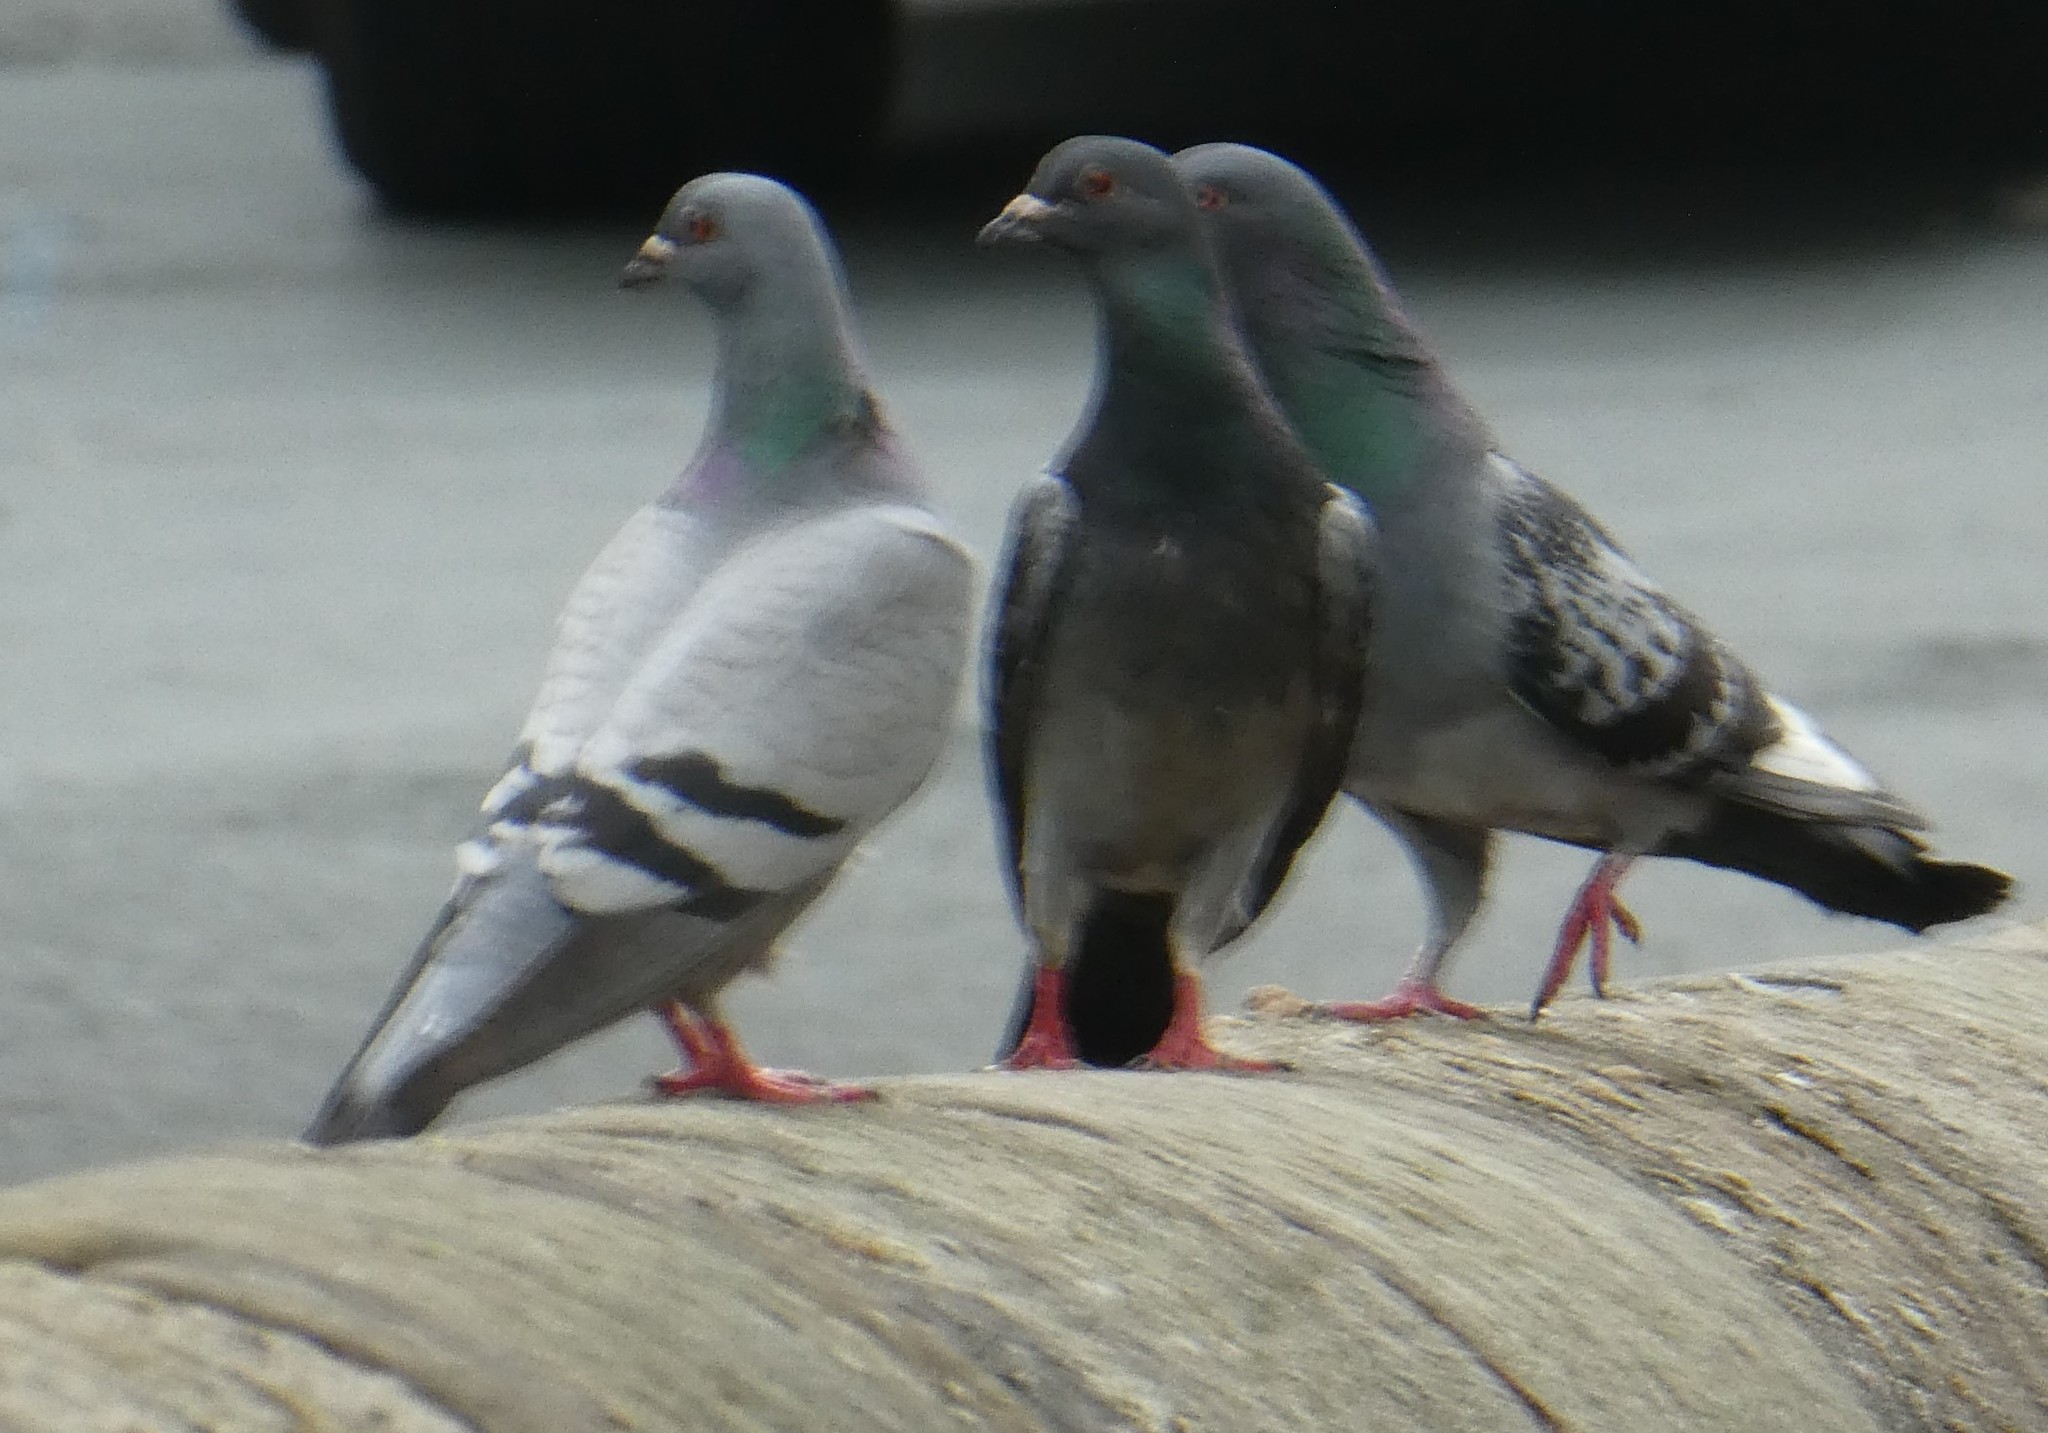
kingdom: Animalia
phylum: Chordata
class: Aves
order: Columbiformes
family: Columbidae
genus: Columba
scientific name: Columba livia
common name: Rock pigeon
